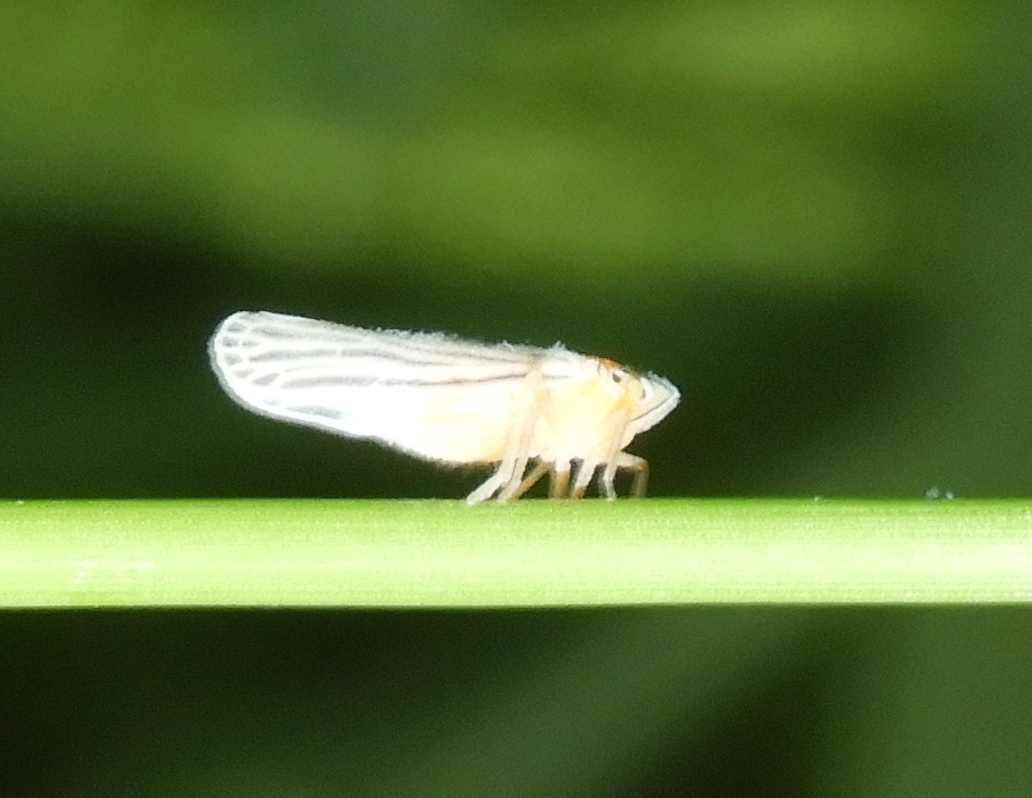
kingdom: Animalia
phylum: Arthropoda
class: Insecta
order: Hemiptera
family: Derbidae
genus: Persis
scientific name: Persis
